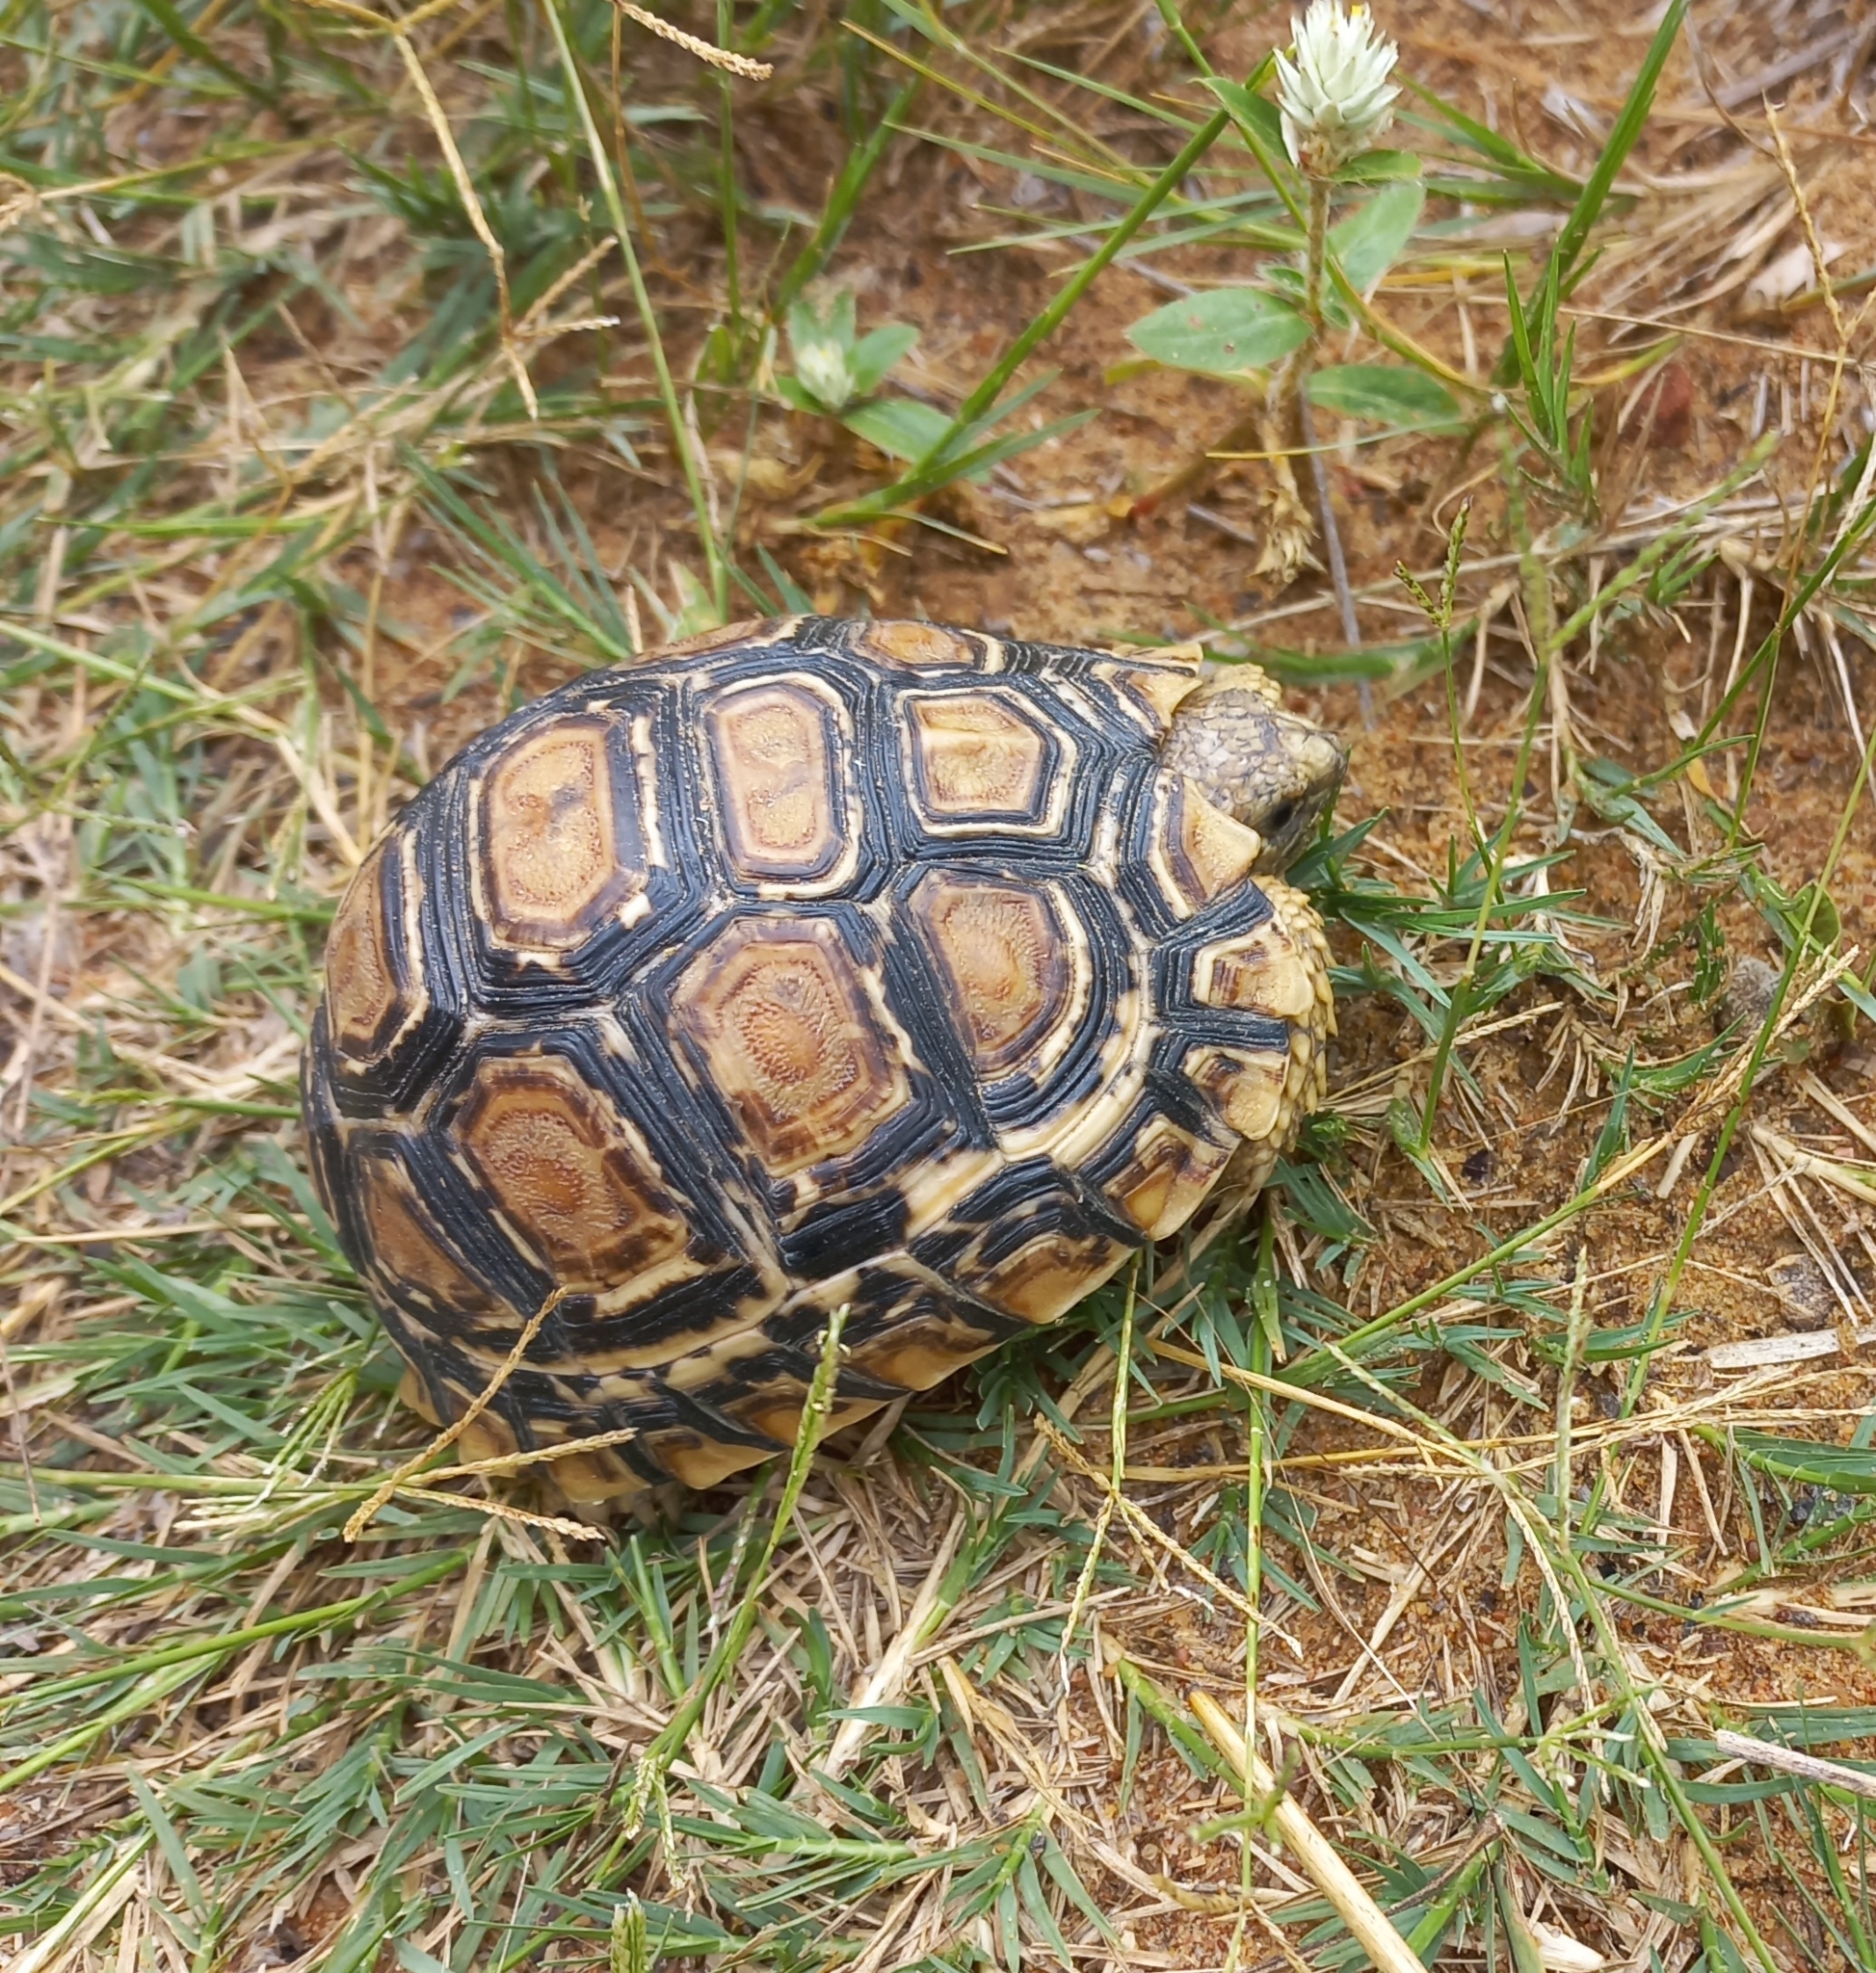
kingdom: Animalia
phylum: Chordata
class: Testudines
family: Testudinidae
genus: Stigmochelys
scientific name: Stigmochelys pardalis
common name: Leopard tortoise
